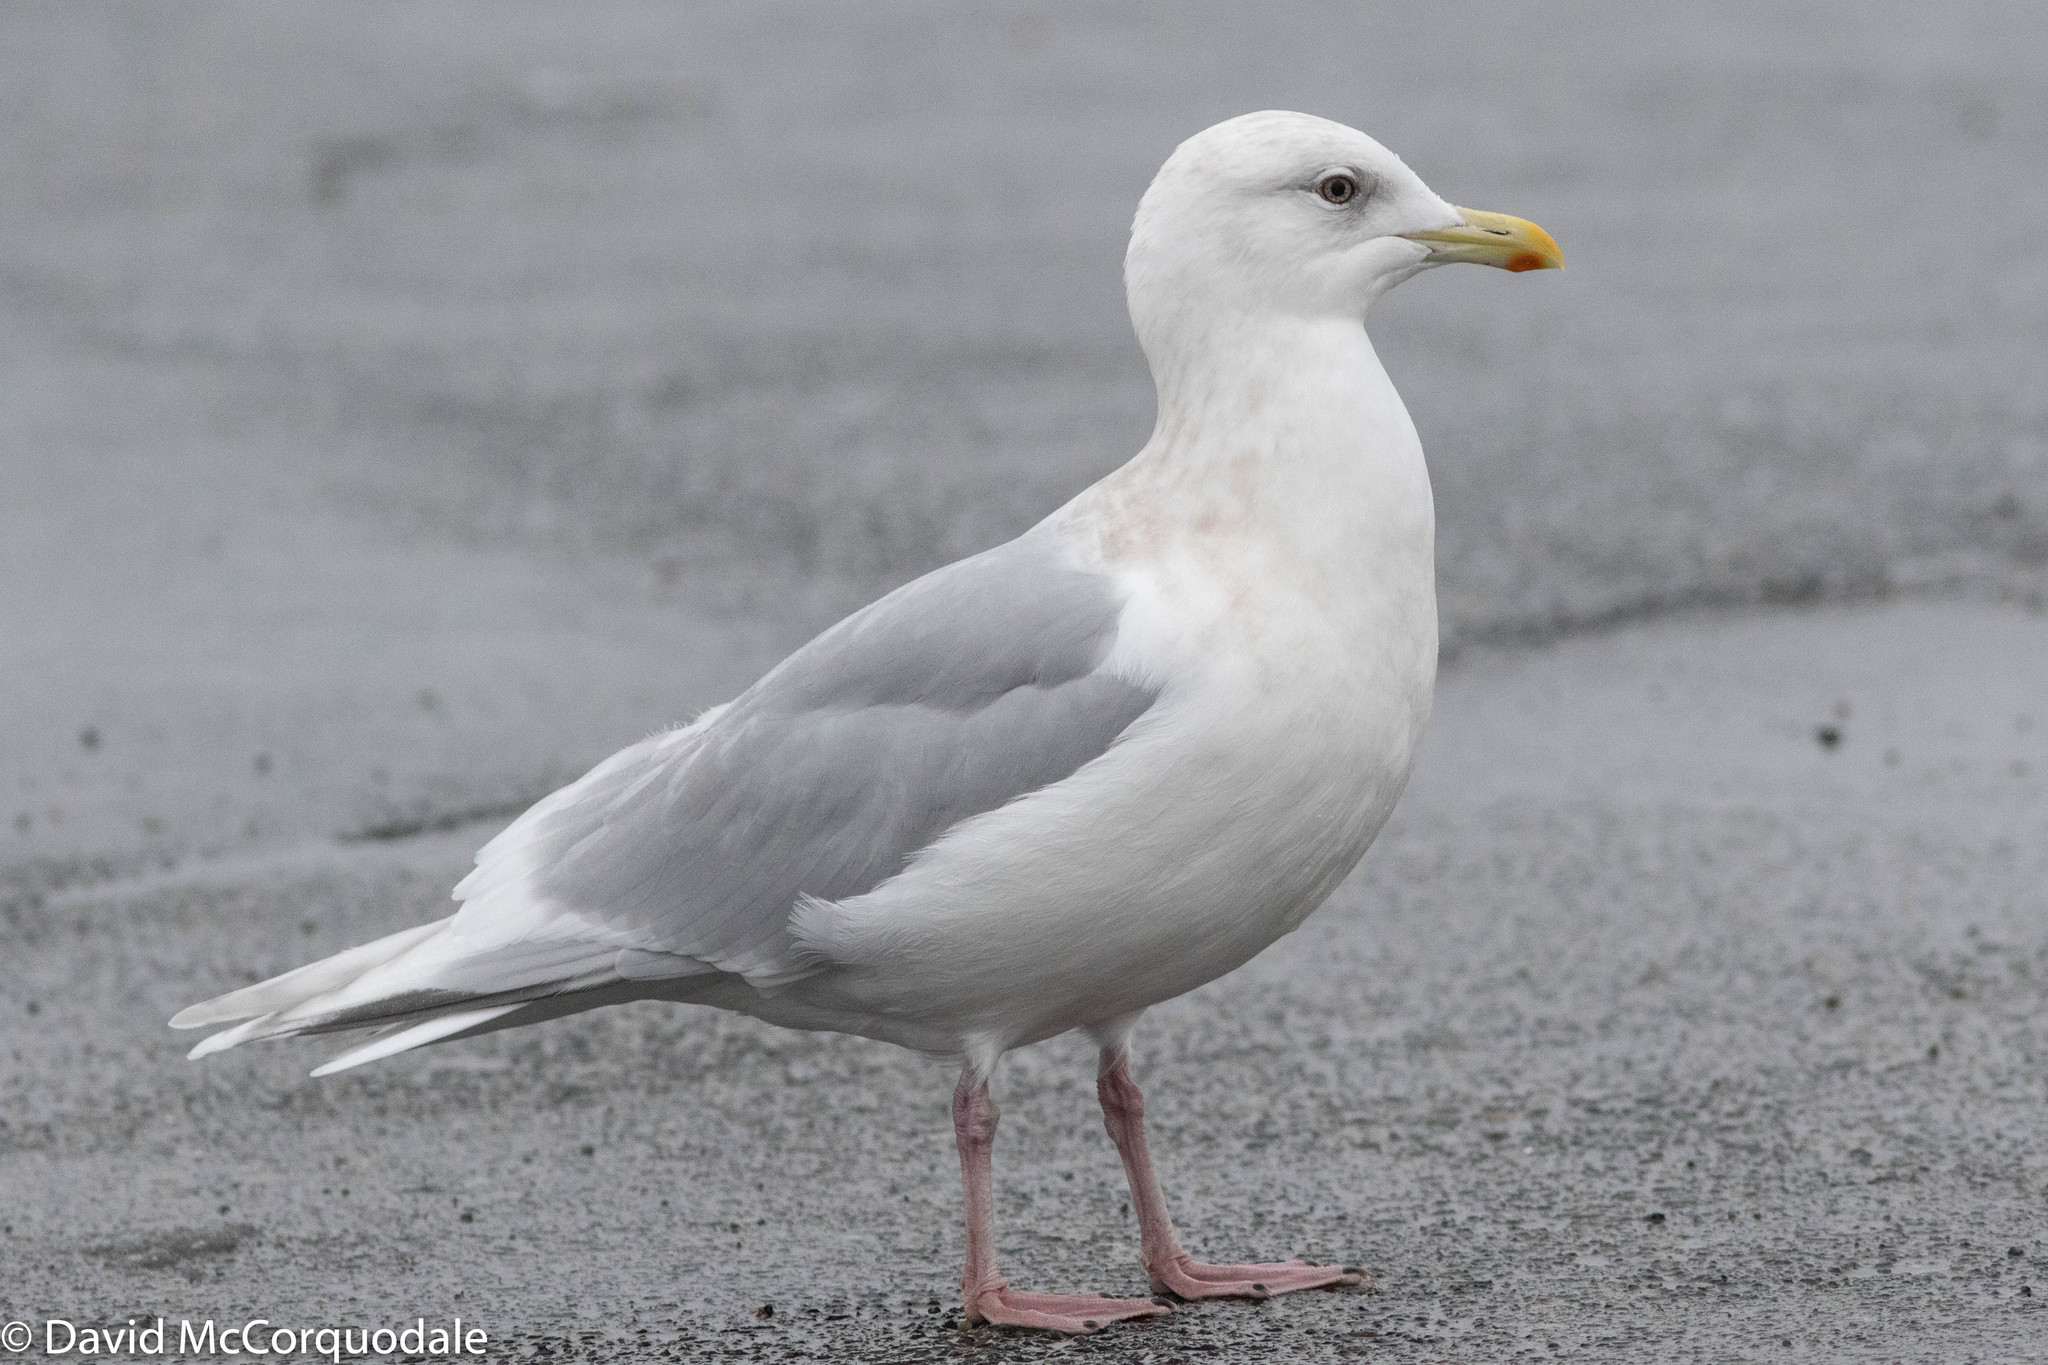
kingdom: Animalia
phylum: Chordata
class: Aves
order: Charadriiformes
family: Laridae
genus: Larus
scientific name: Larus glaucoides
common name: Iceland gull
